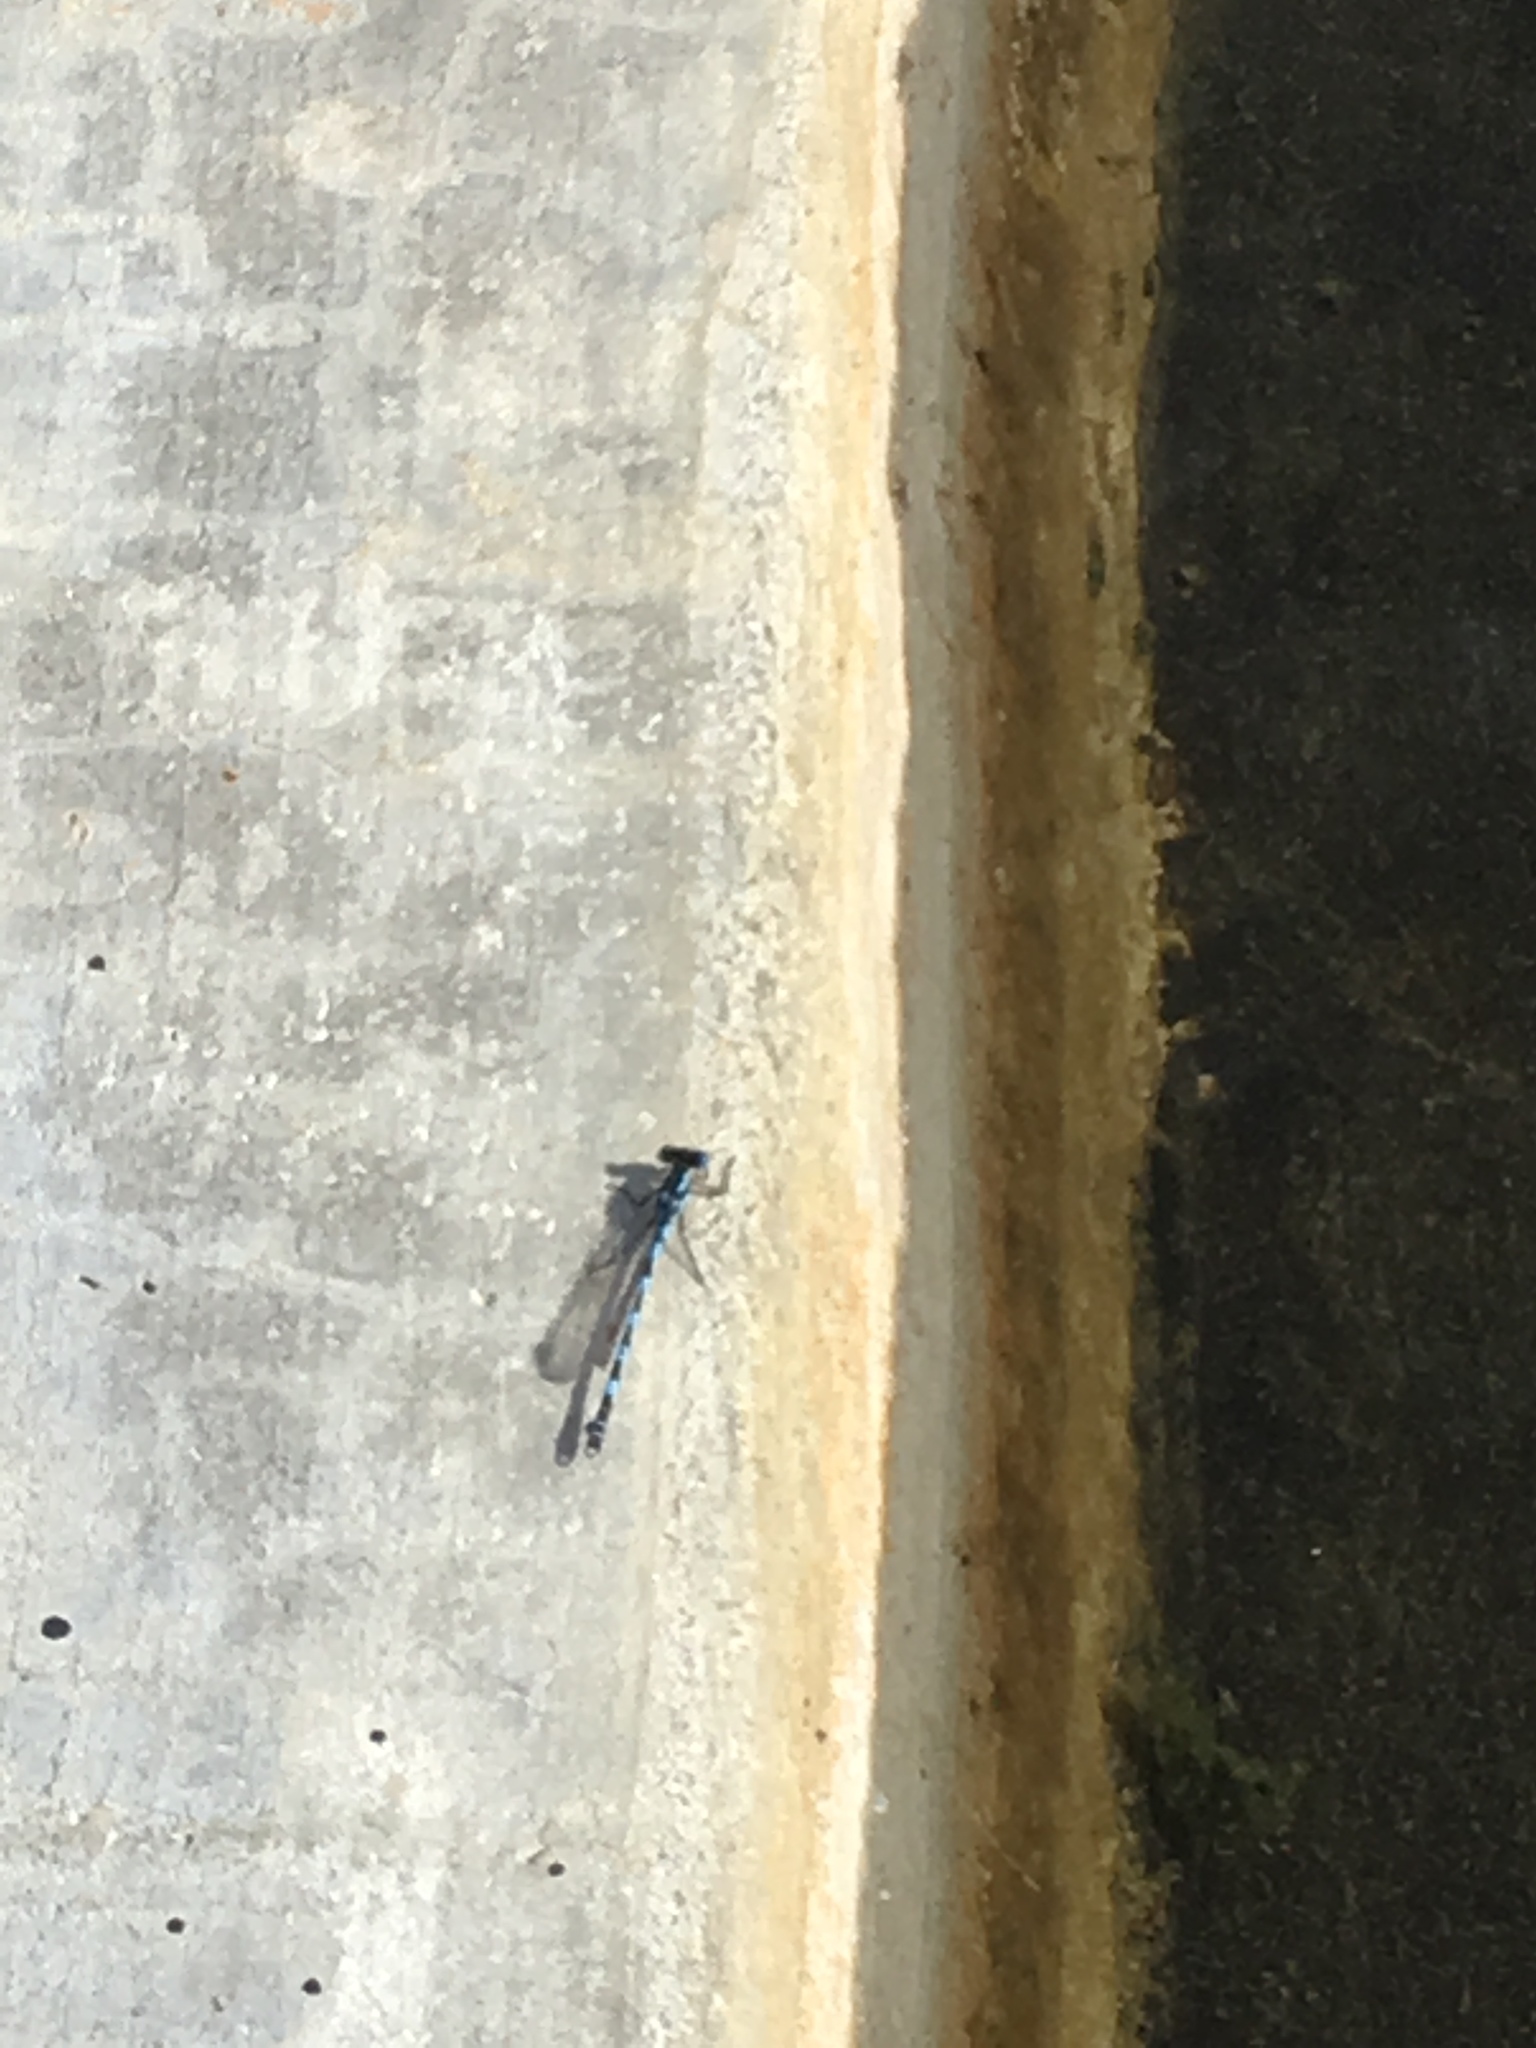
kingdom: Animalia
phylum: Arthropoda
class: Insecta
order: Odonata
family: Lestidae
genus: Austrolestes
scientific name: Austrolestes annulosus
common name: Blue ringtail
